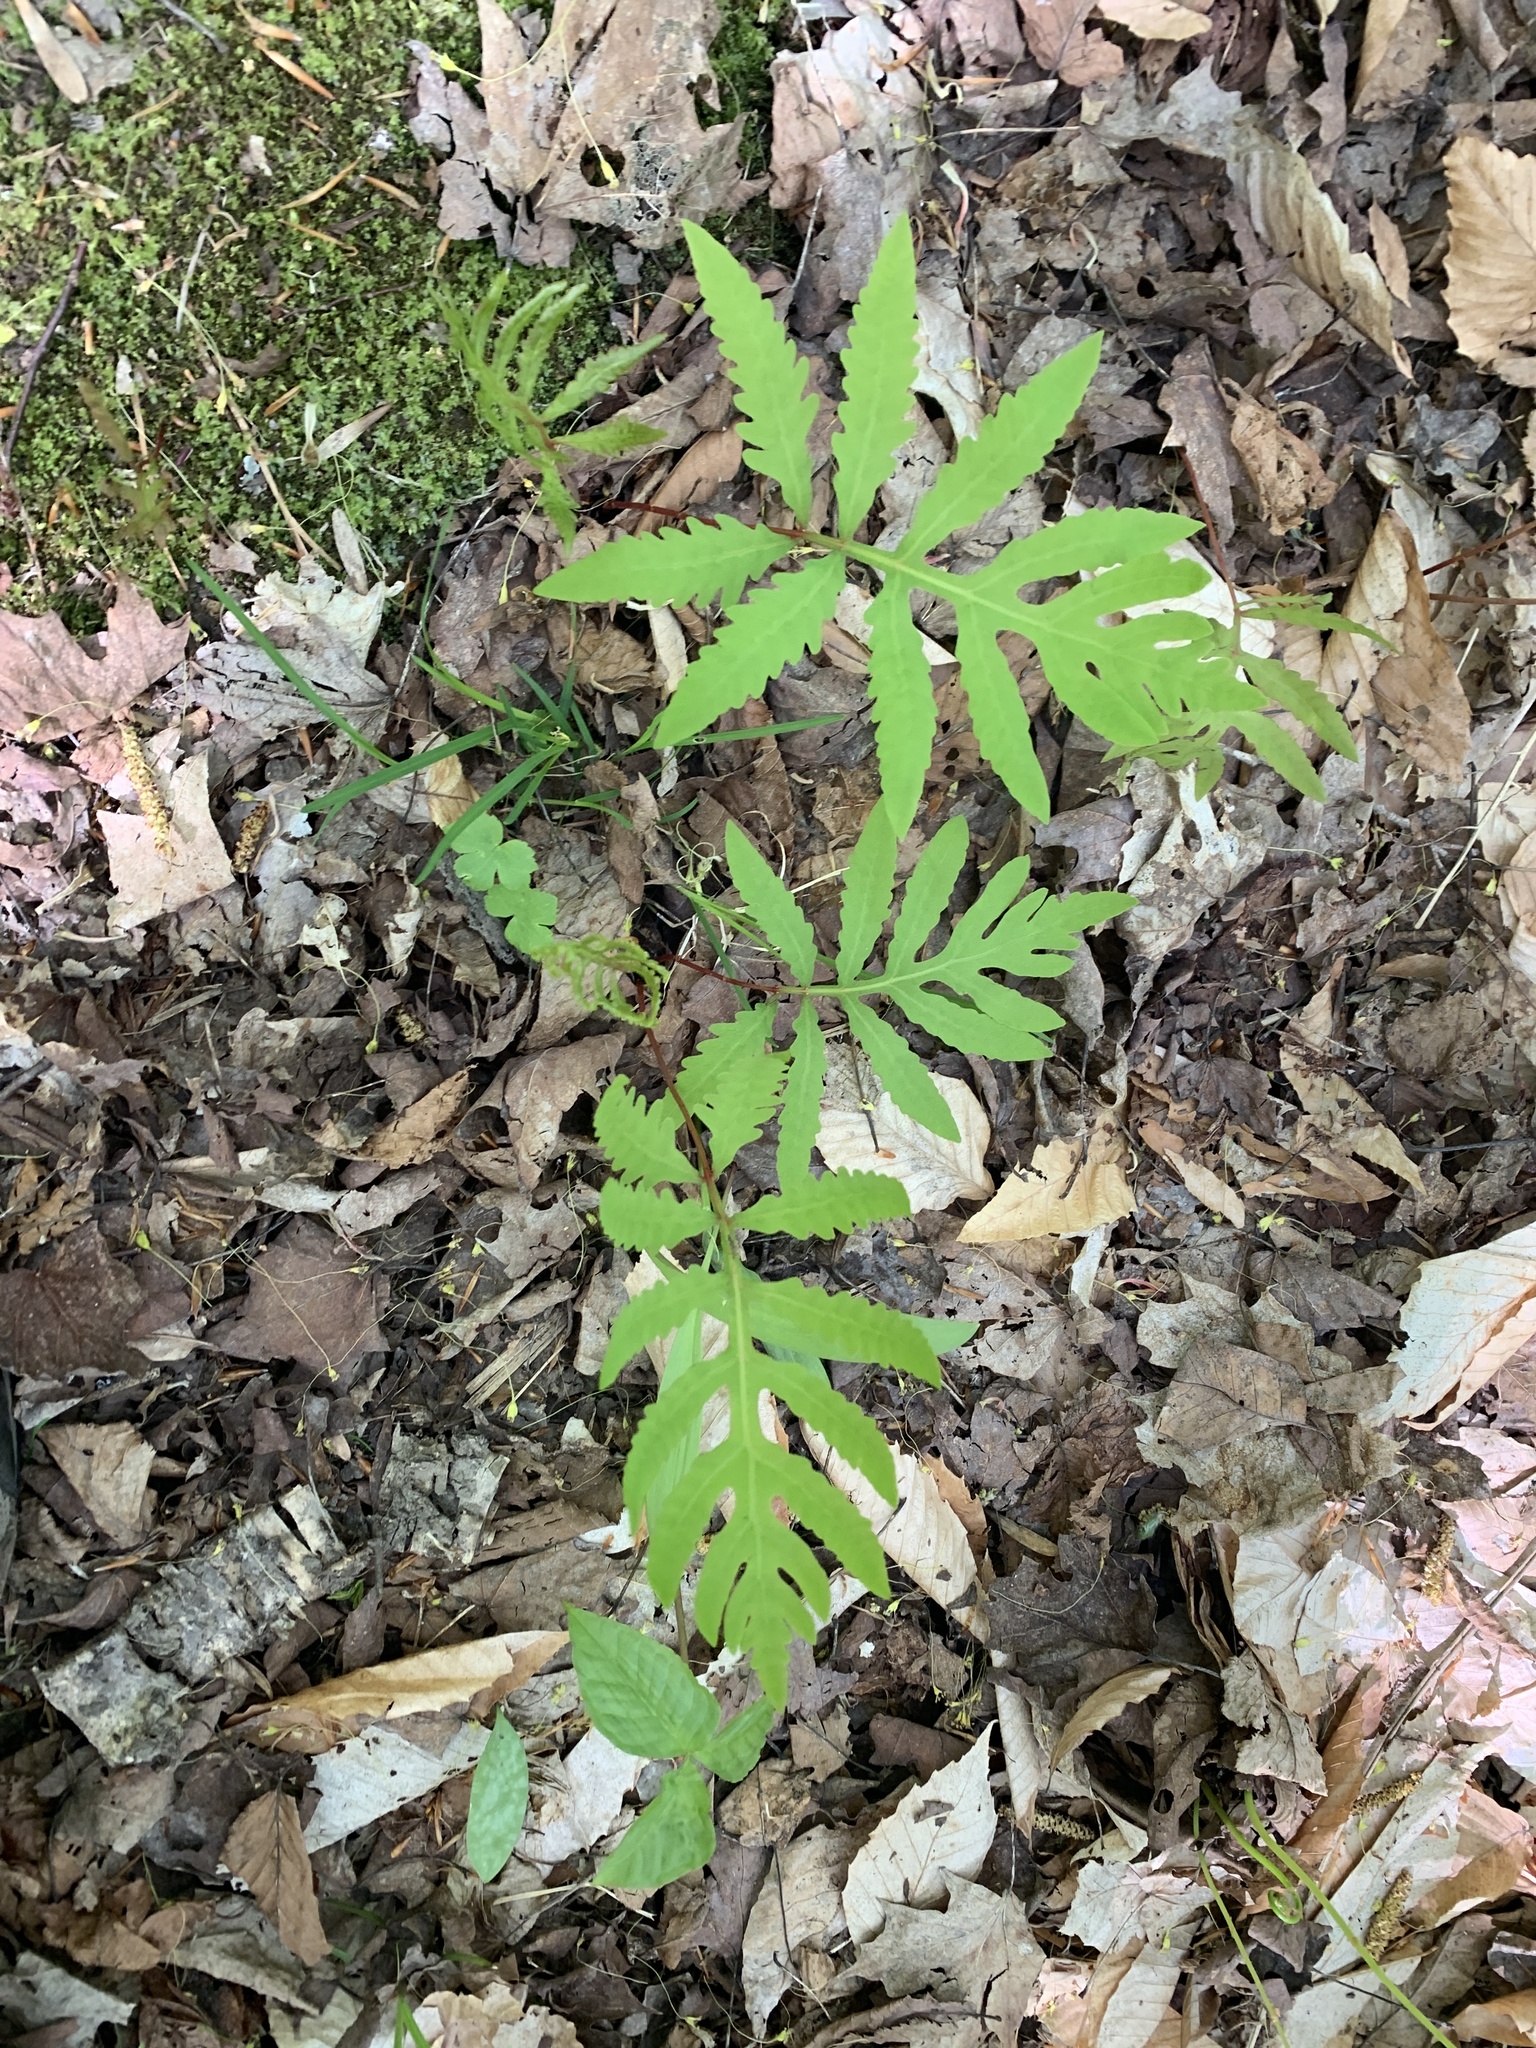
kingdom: Plantae
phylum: Tracheophyta
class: Polypodiopsida
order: Polypodiales
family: Onocleaceae
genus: Onoclea
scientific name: Onoclea sensibilis
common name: Sensitive fern
